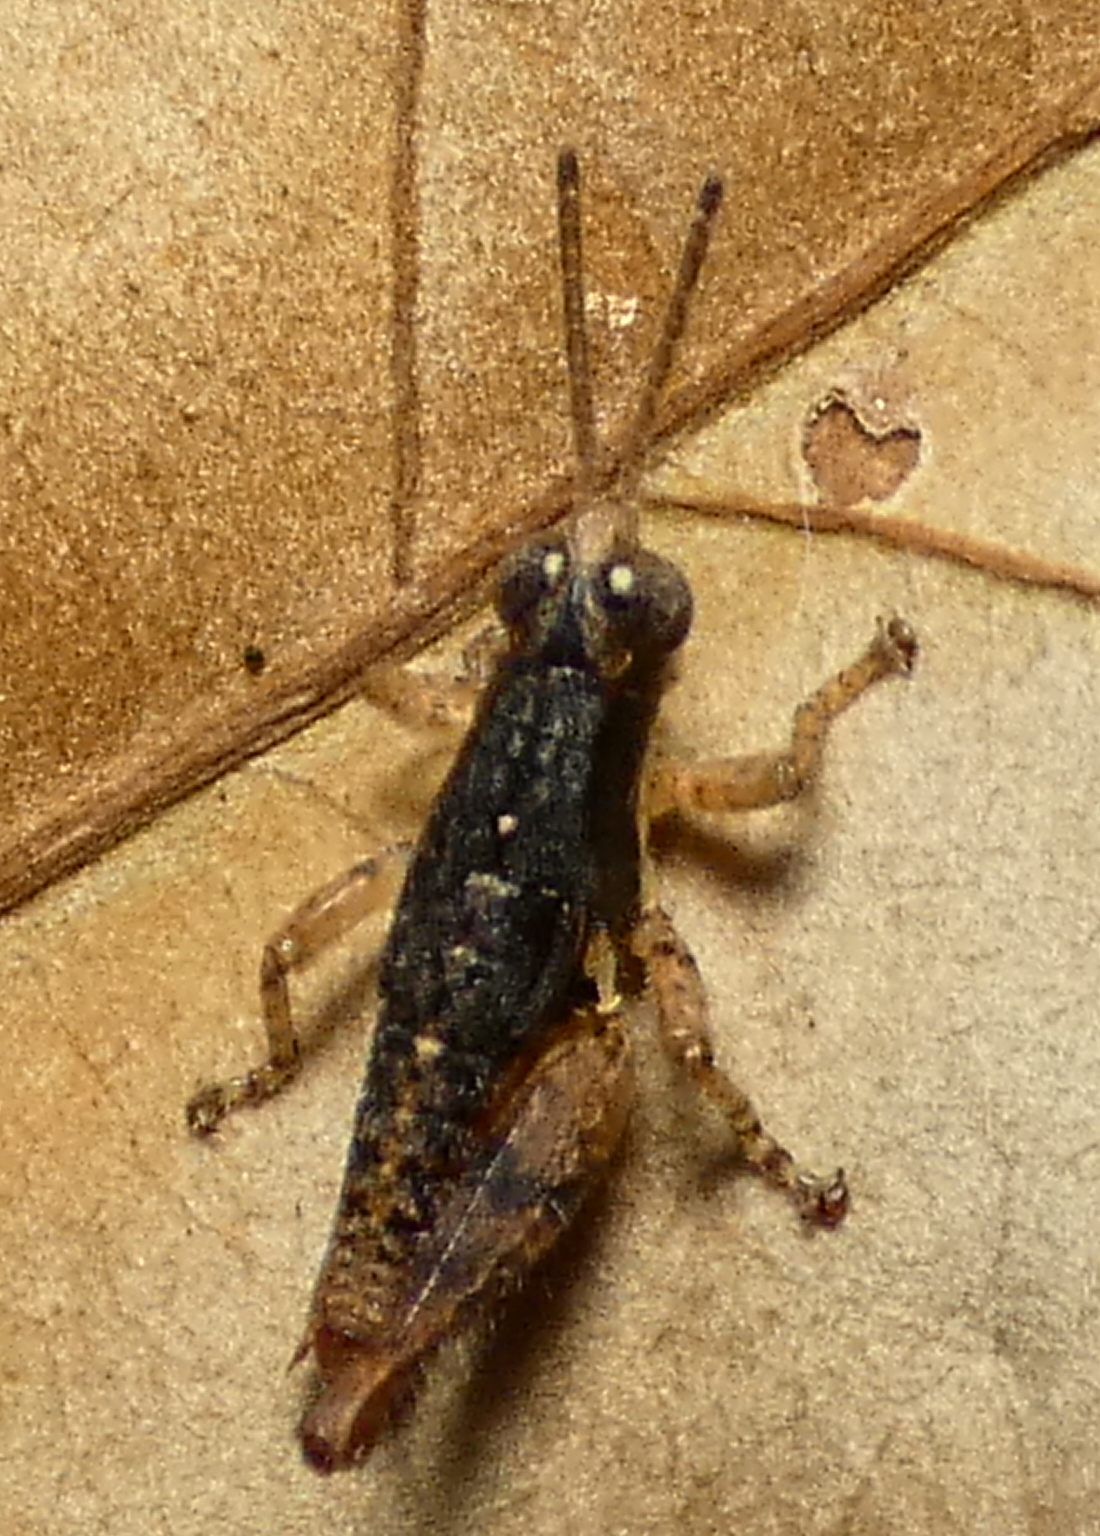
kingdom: Animalia
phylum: Arthropoda
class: Insecta
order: Orthoptera
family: Acrididae
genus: Eujivarus
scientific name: Eujivarus meridionalis
